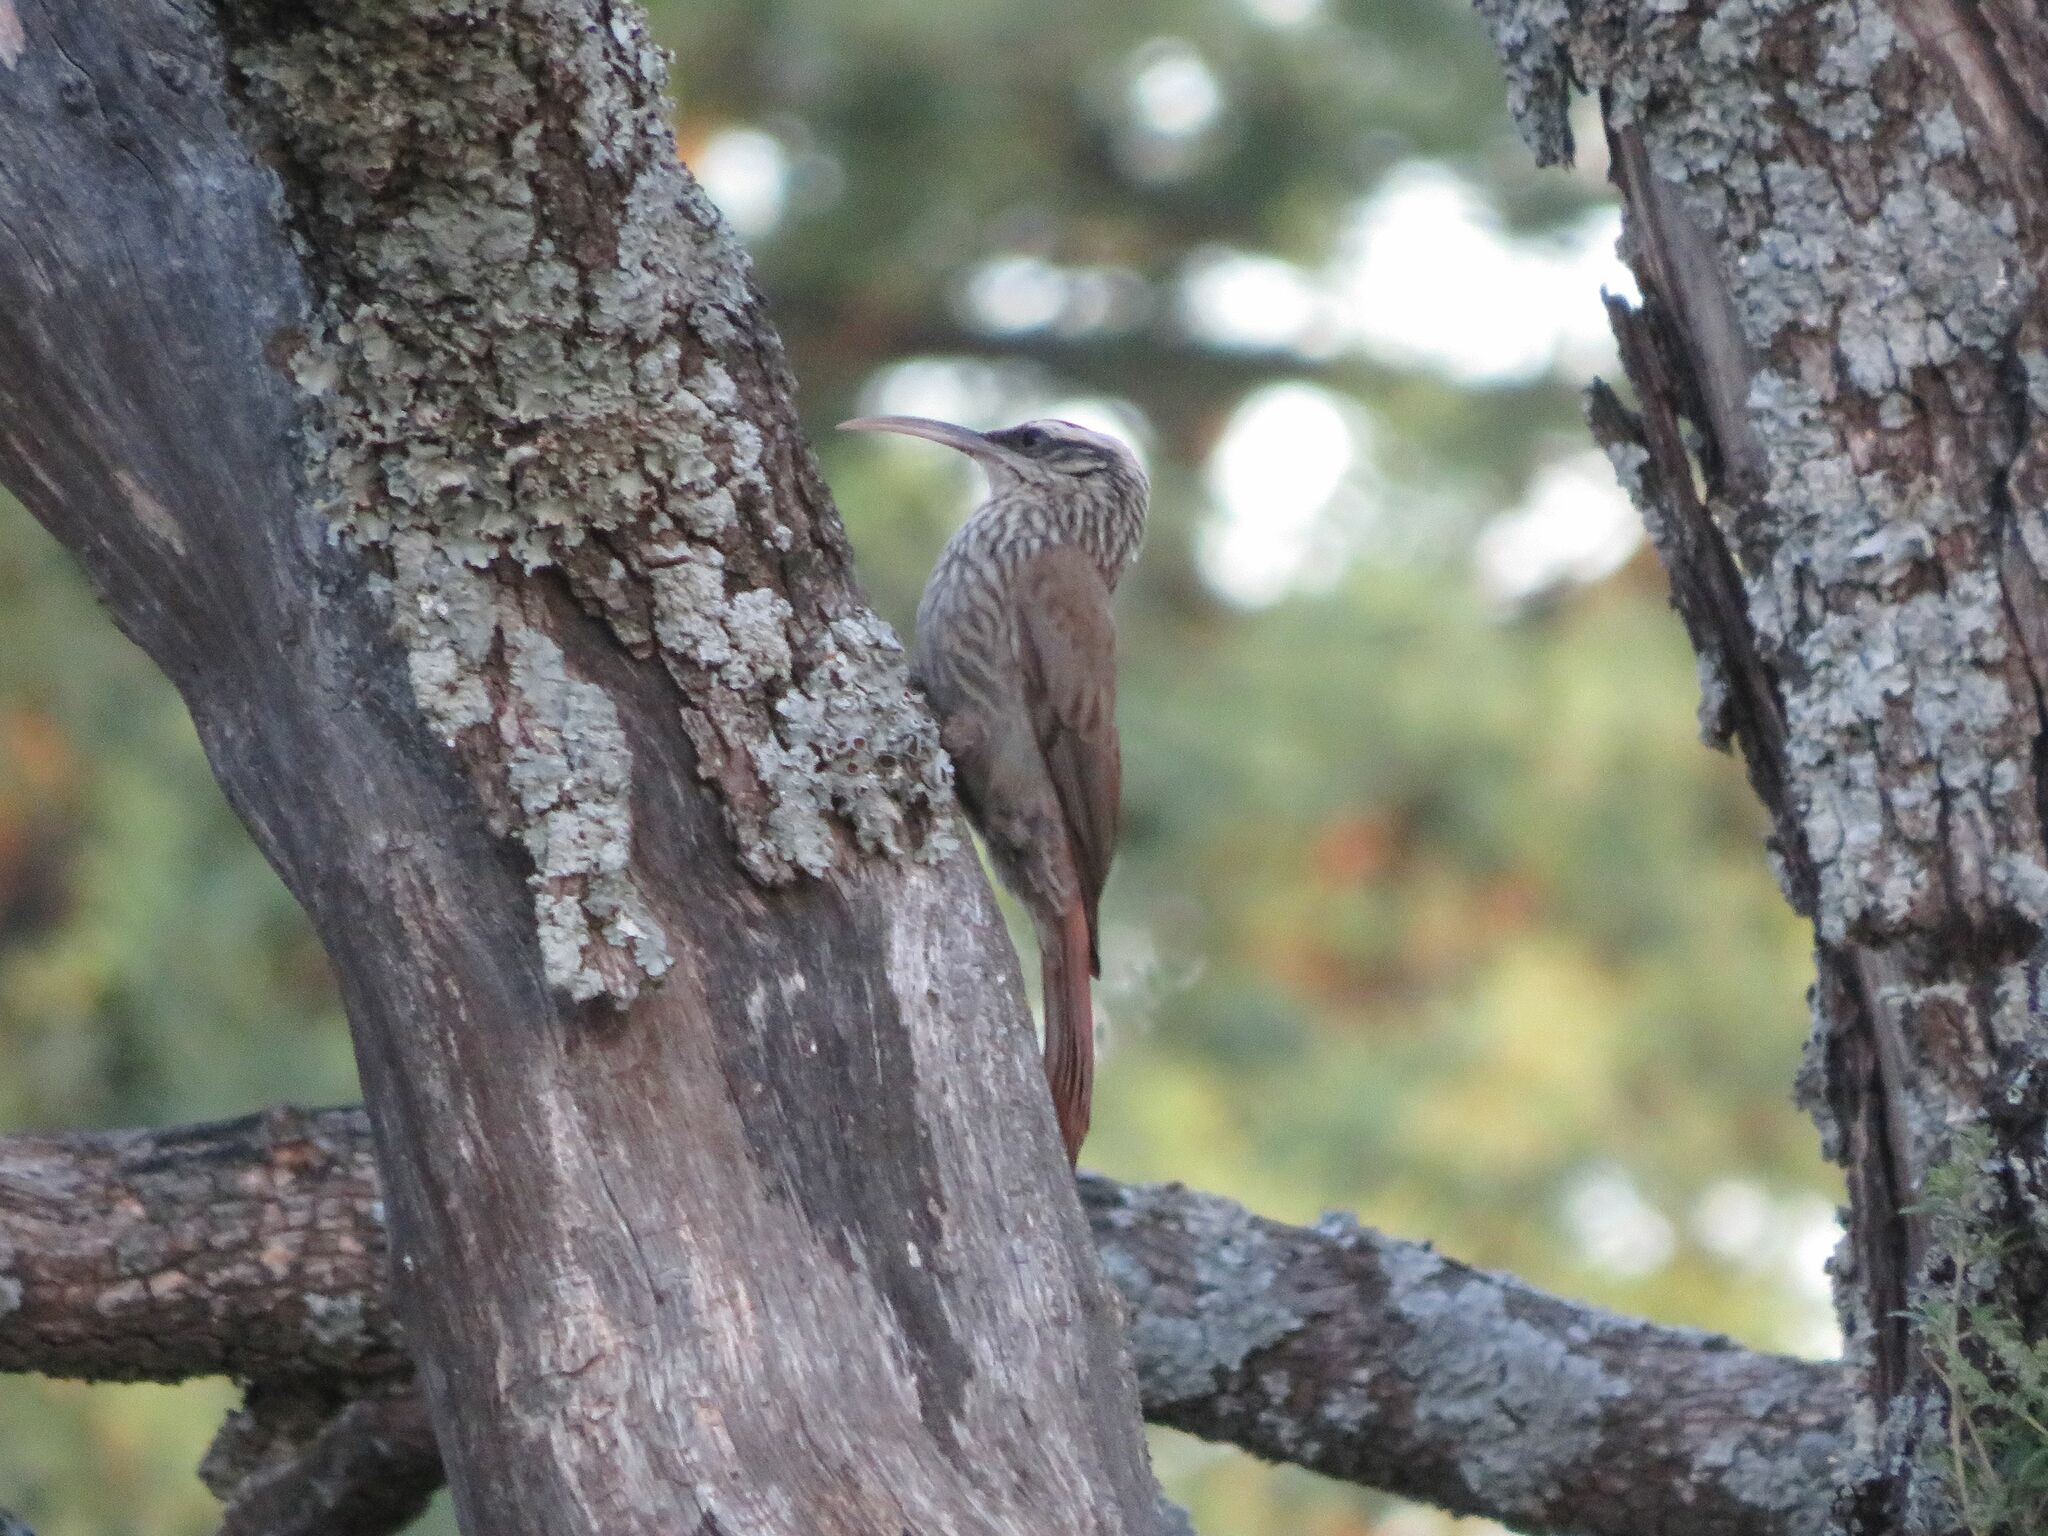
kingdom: Animalia
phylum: Chordata
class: Aves
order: Passeriformes
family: Furnariidae
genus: Lepidocolaptes
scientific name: Lepidocolaptes angustirostris
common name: Narrow-billed woodcreeper
